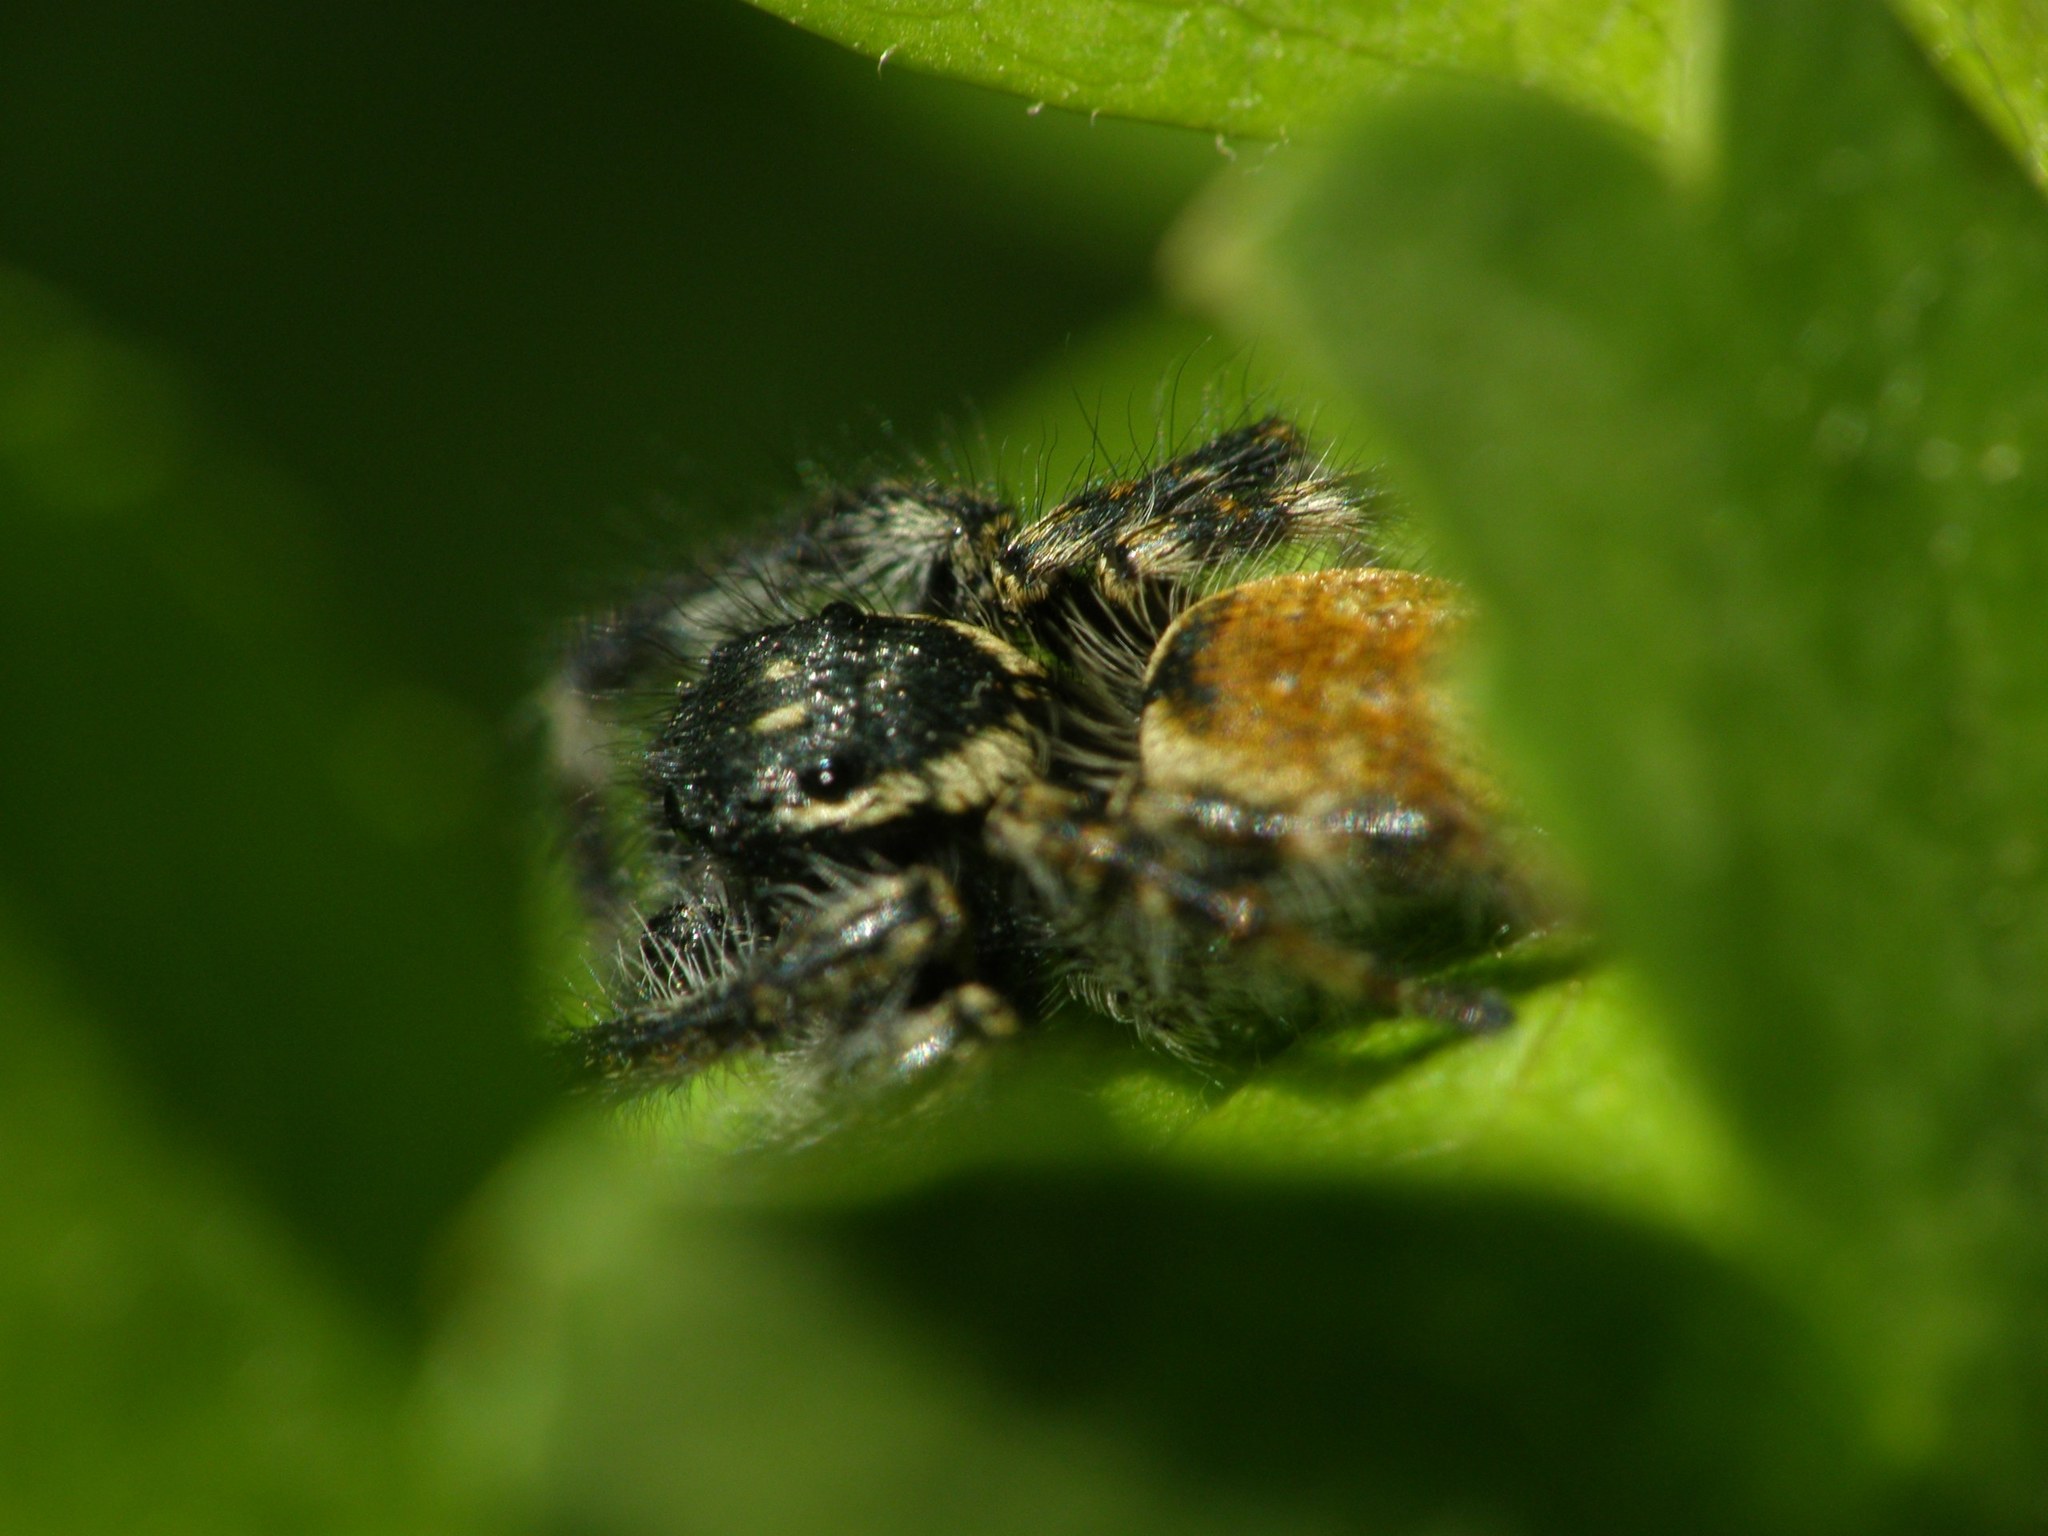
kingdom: Animalia
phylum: Arthropoda
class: Arachnida
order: Araneae
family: Salticidae
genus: Carrhotus
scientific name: Carrhotus xanthogramma
